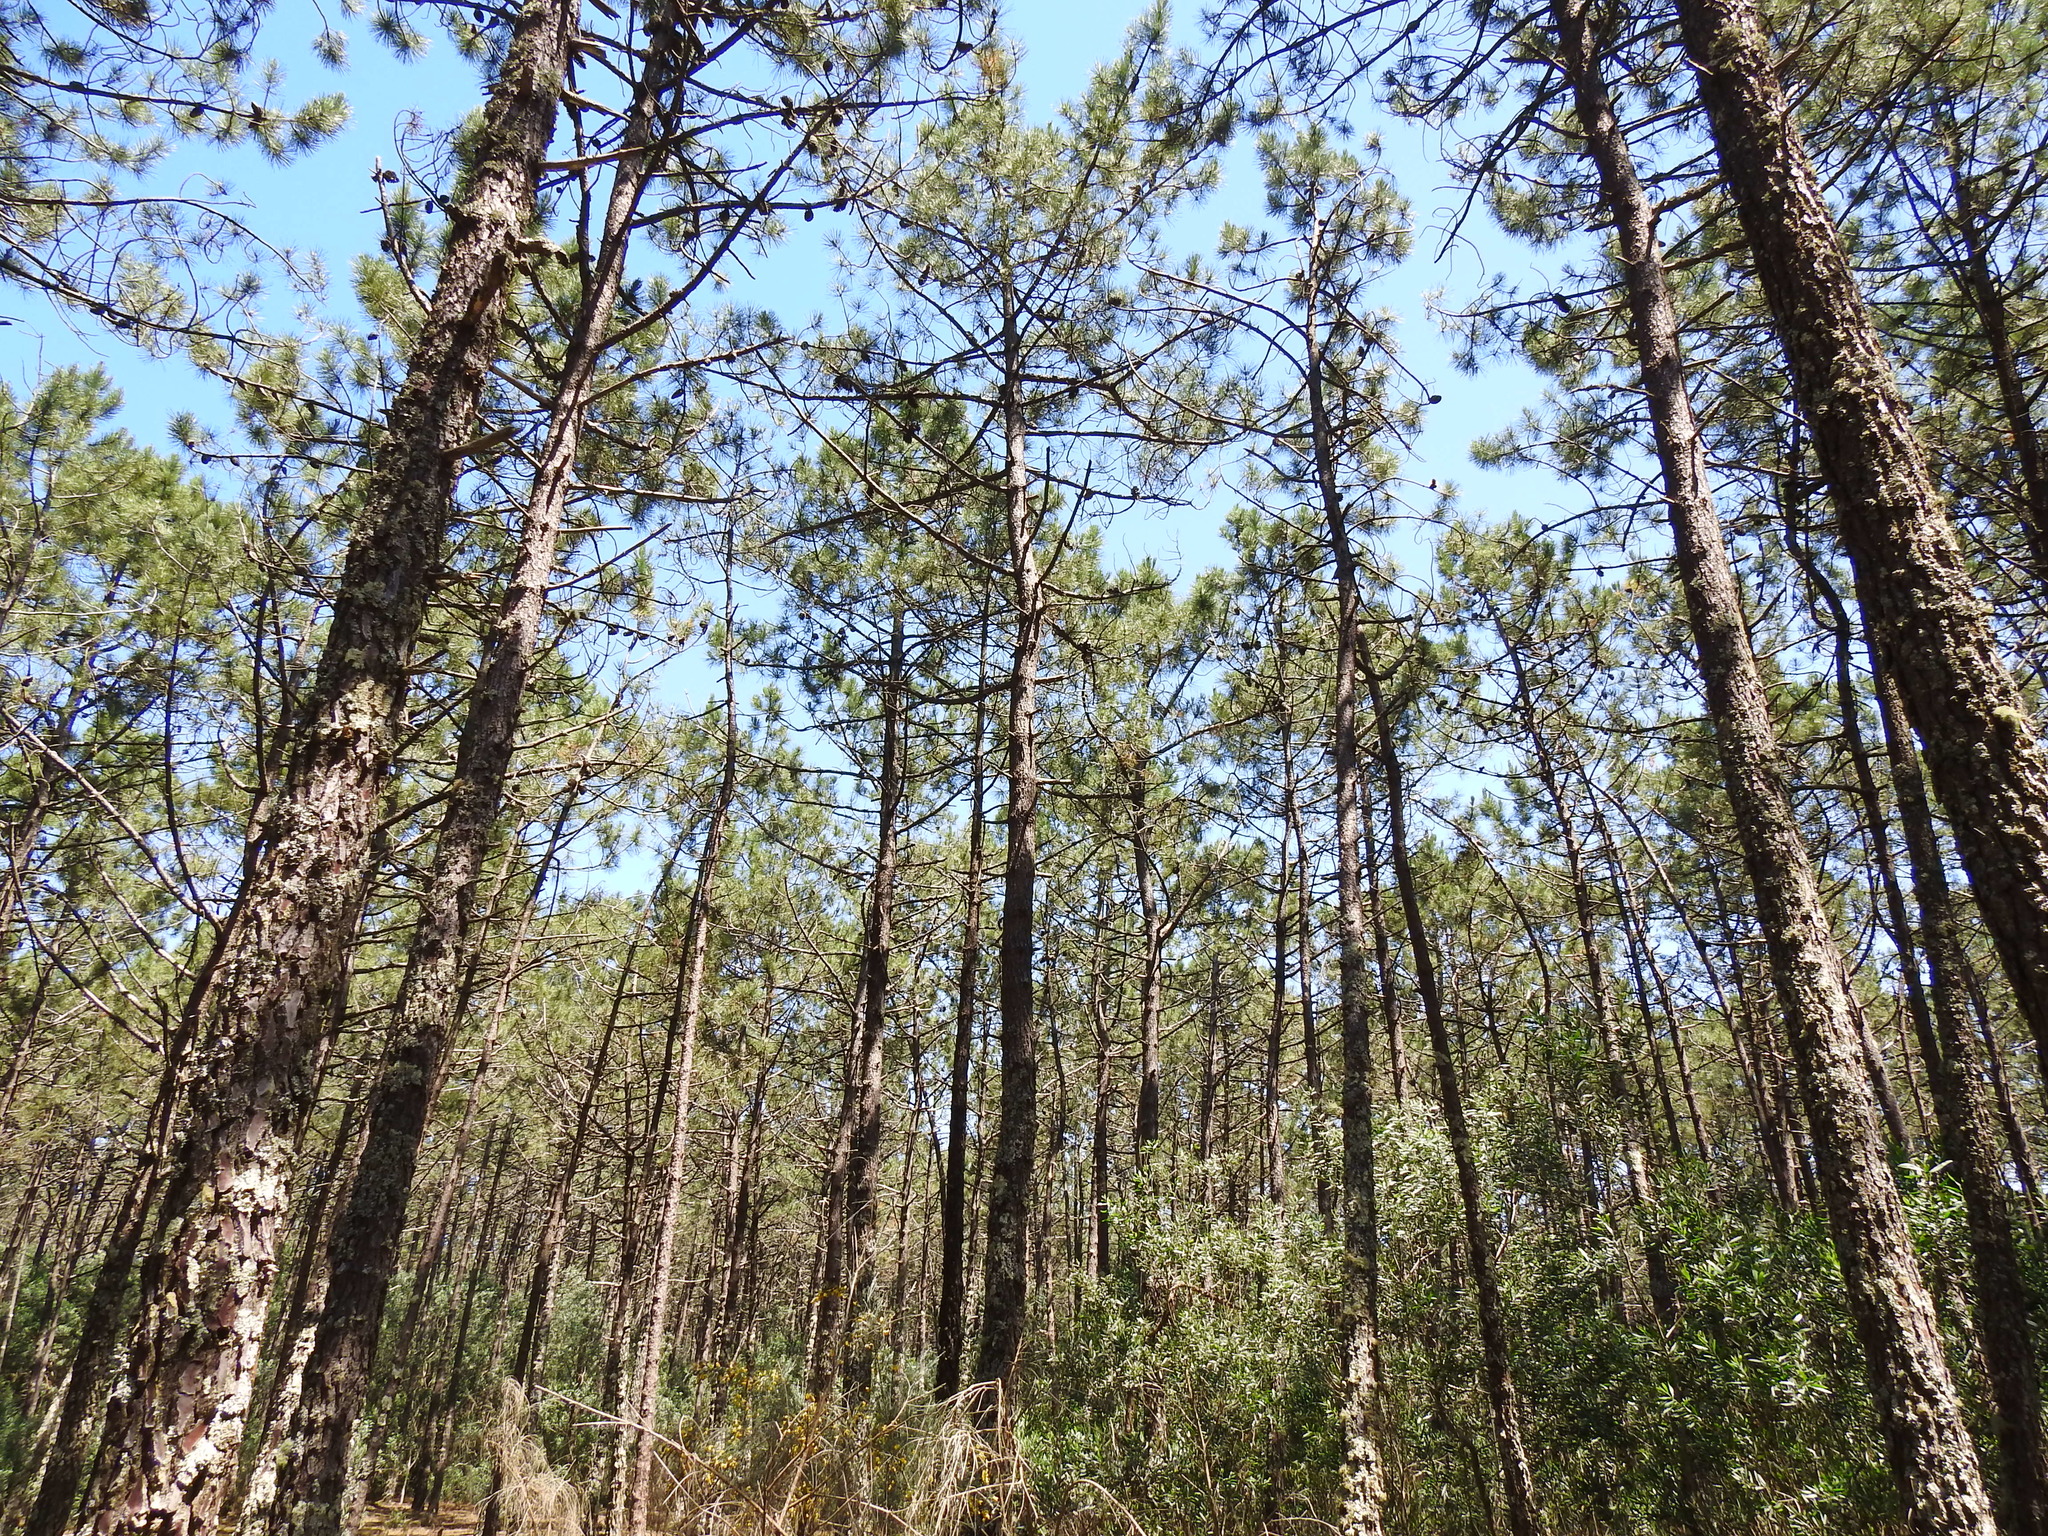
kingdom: Plantae
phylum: Tracheophyta
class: Pinopsida
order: Pinales
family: Pinaceae
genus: Pinus
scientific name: Pinus pinaster
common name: Maritime pine
